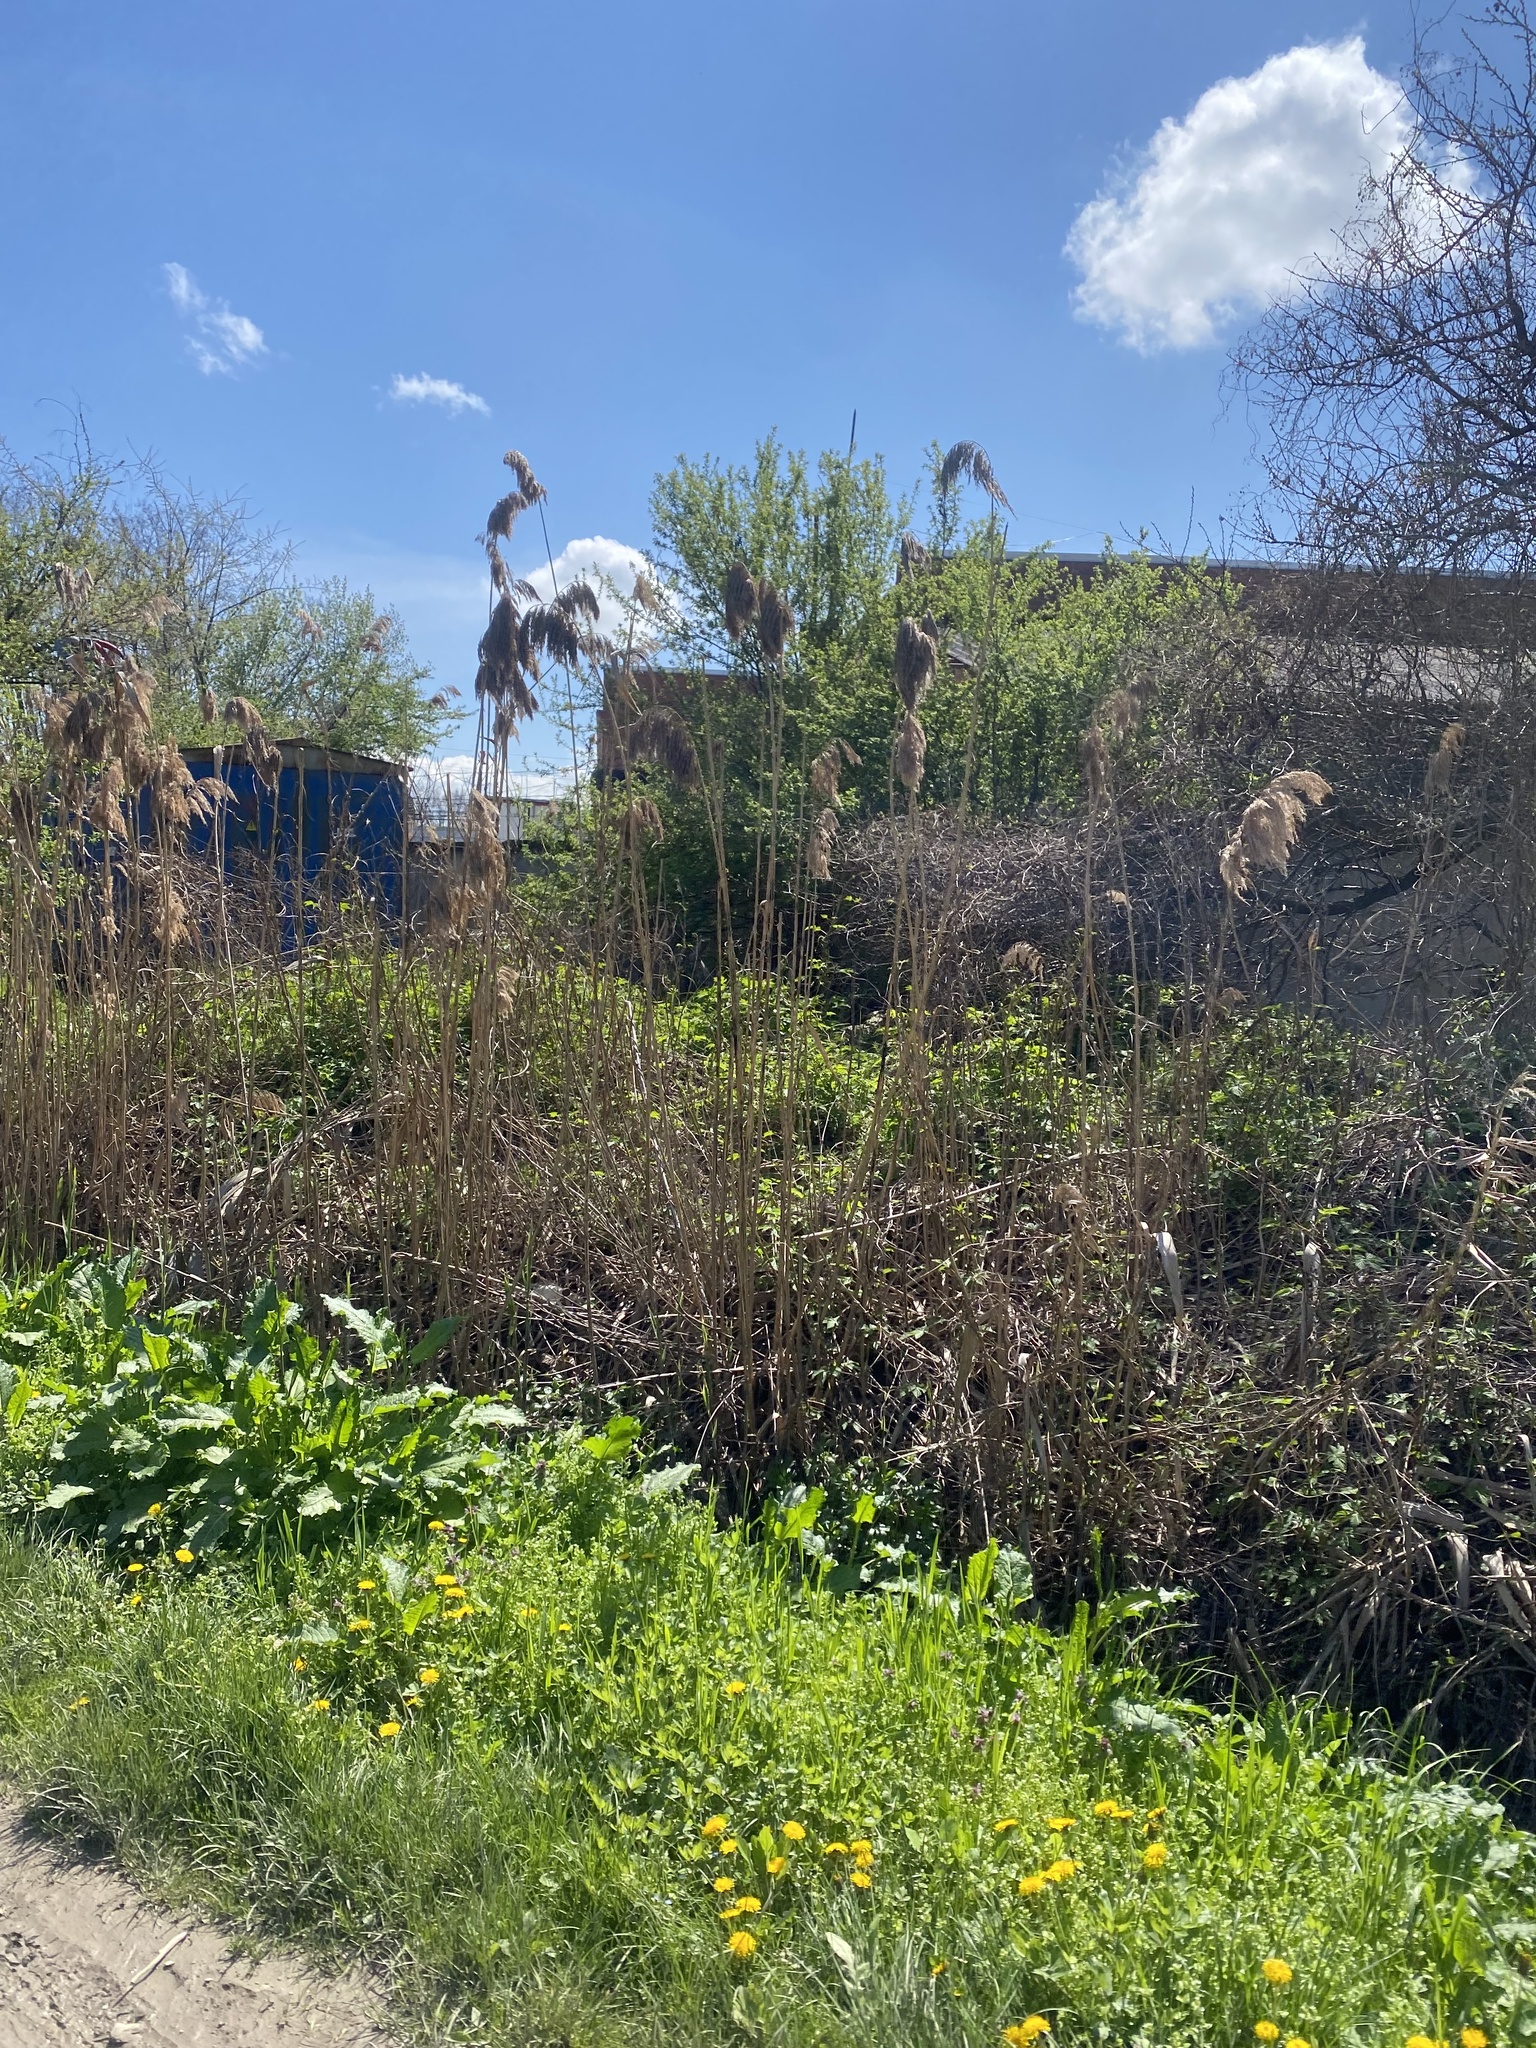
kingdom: Plantae
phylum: Tracheophyta
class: Liliopsida
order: Poales
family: Poaceae
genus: Phragmites
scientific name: Phragmites australis
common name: Common reed
